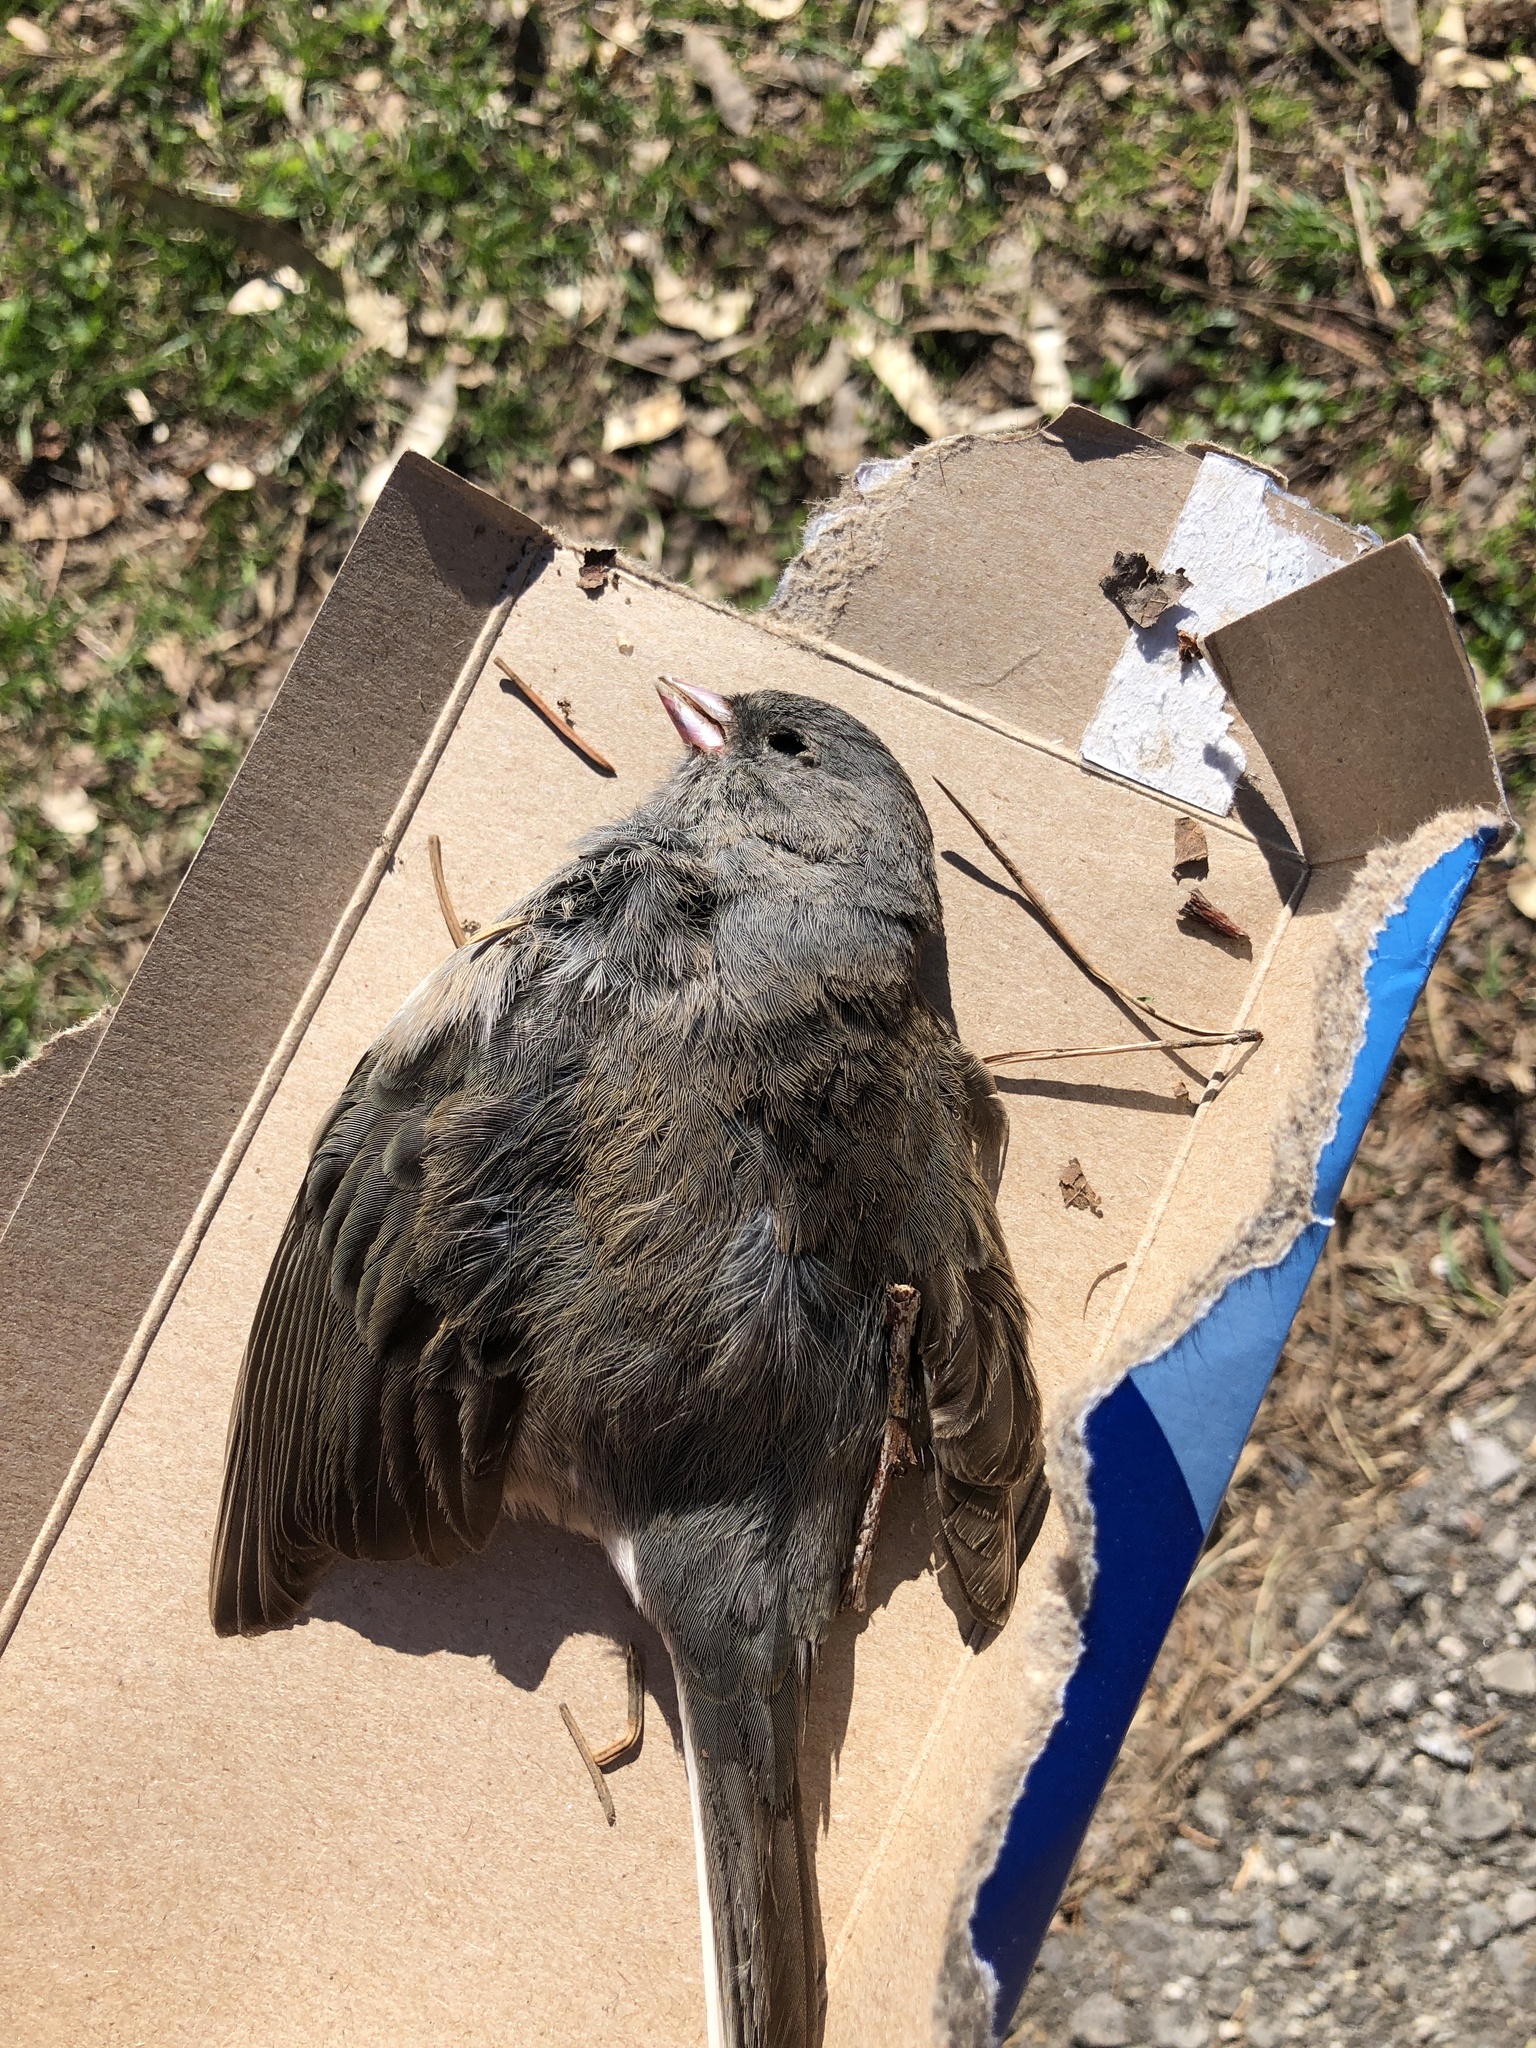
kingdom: Animalia
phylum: Chordata
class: Aves
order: Passeriformes
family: Passerellidae
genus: Junco
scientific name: Junco hyemalis
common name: Dark-eyed junco
